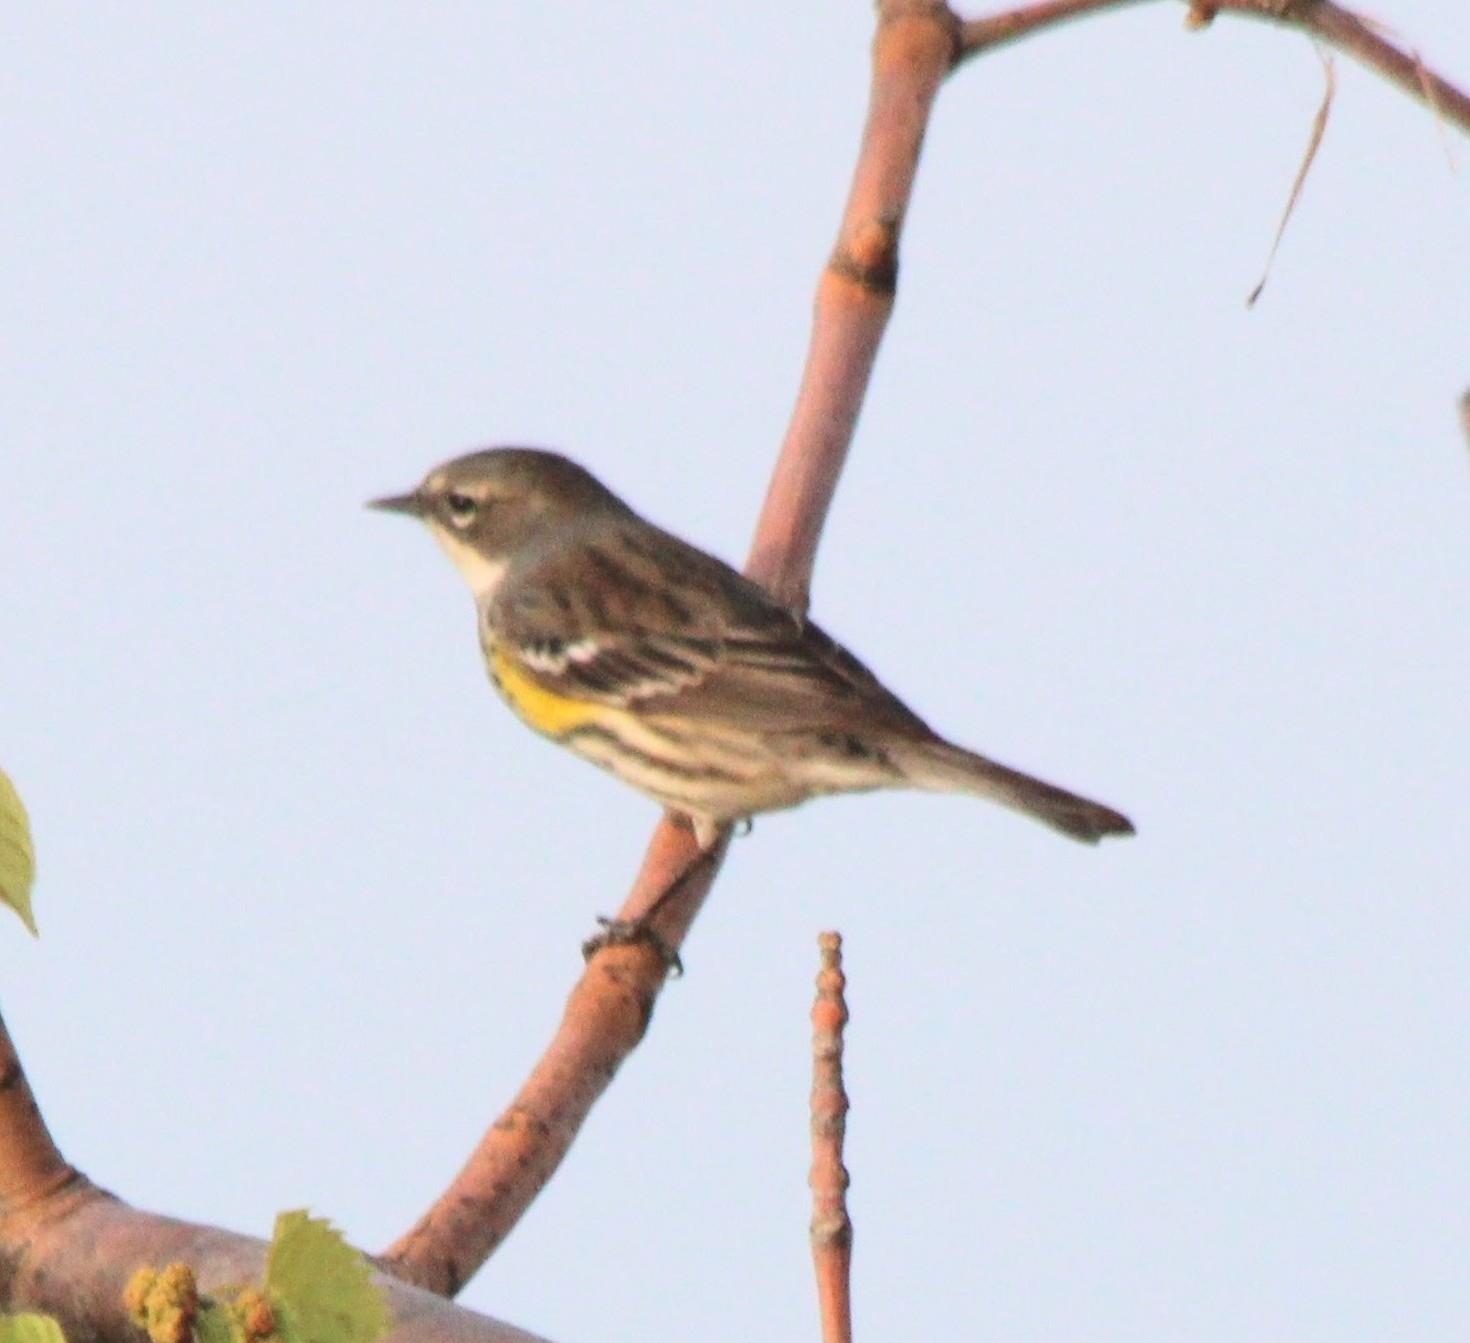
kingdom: Animalia
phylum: Chordata
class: Aves
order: Passeriformes
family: Parulidae
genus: Setophaga
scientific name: Setophaga coronata
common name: Myrtle warbler
